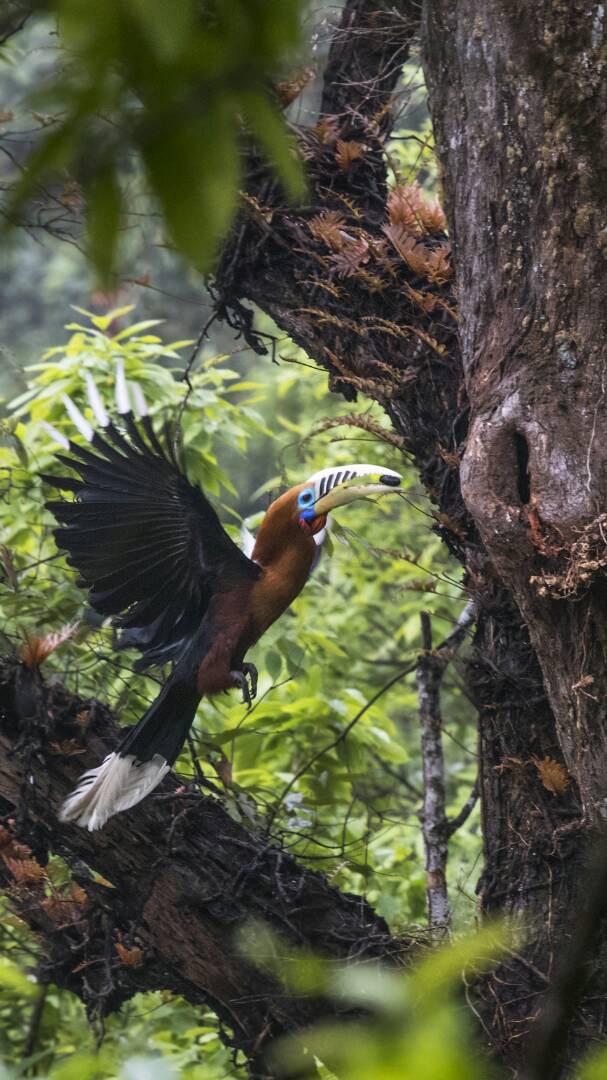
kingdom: Animalia
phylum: Chordata
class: Aves
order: Bucerotiformes
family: Bucerotidae
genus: Aceros
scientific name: Aceros nipalensis
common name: Rufous-necked hornbill
